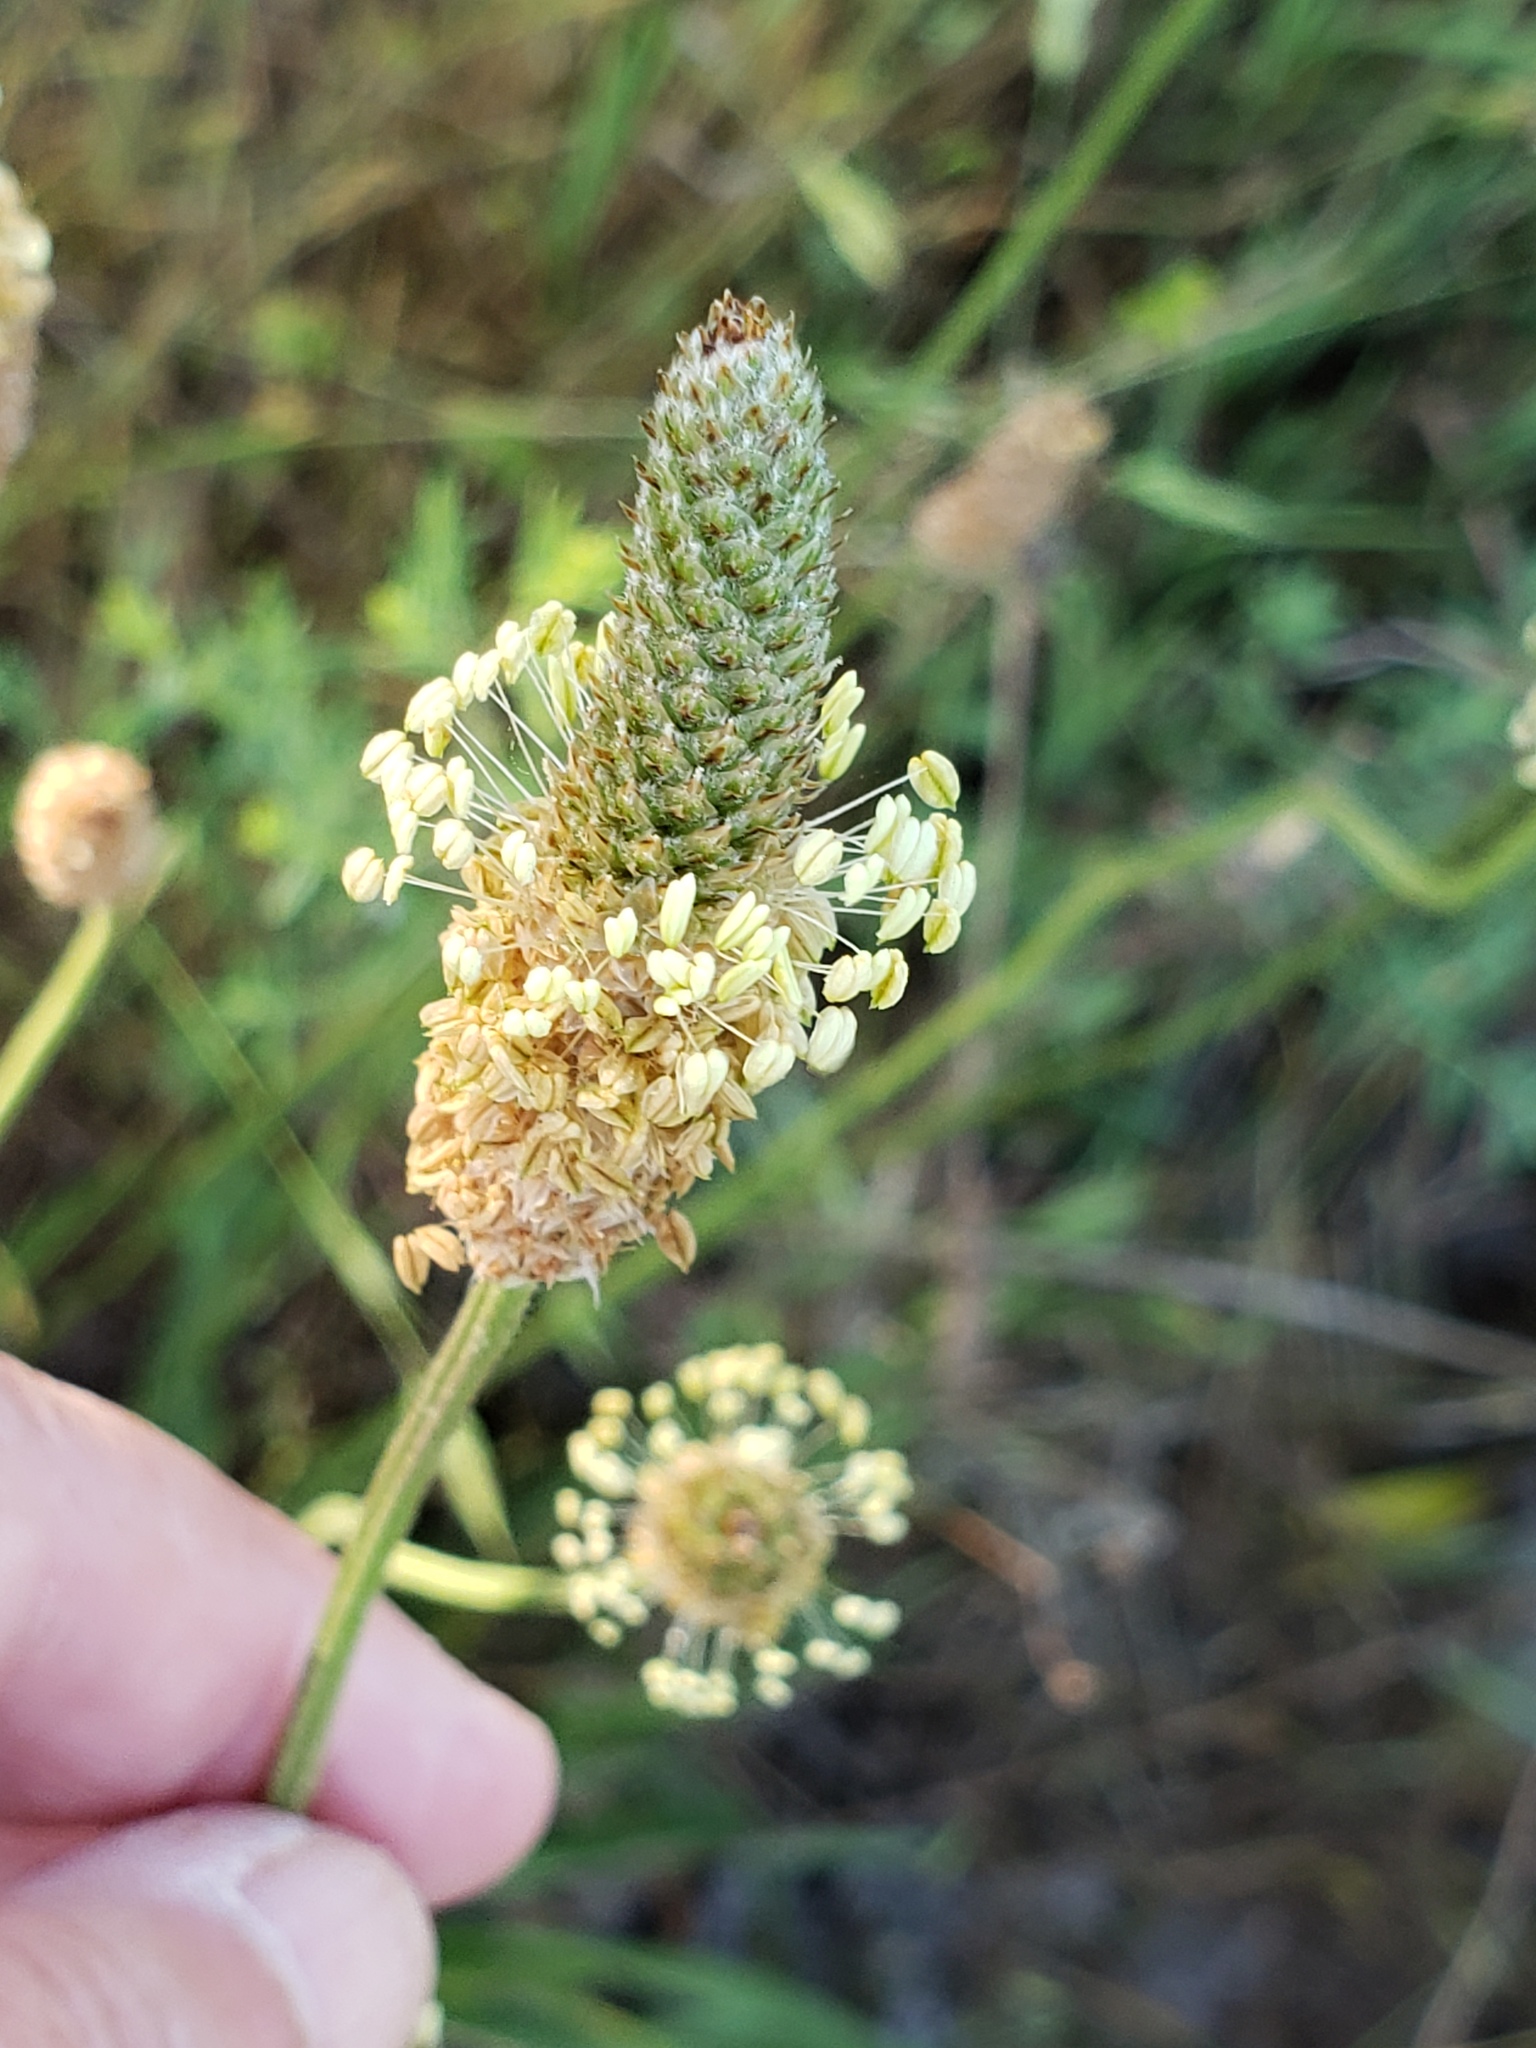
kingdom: Plantae
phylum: Tracheophyta
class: Magnoliopsida
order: Lamiales
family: Plantaginaceae
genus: Plantago
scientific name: Plantago lanceolata
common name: Ribwort plantain
